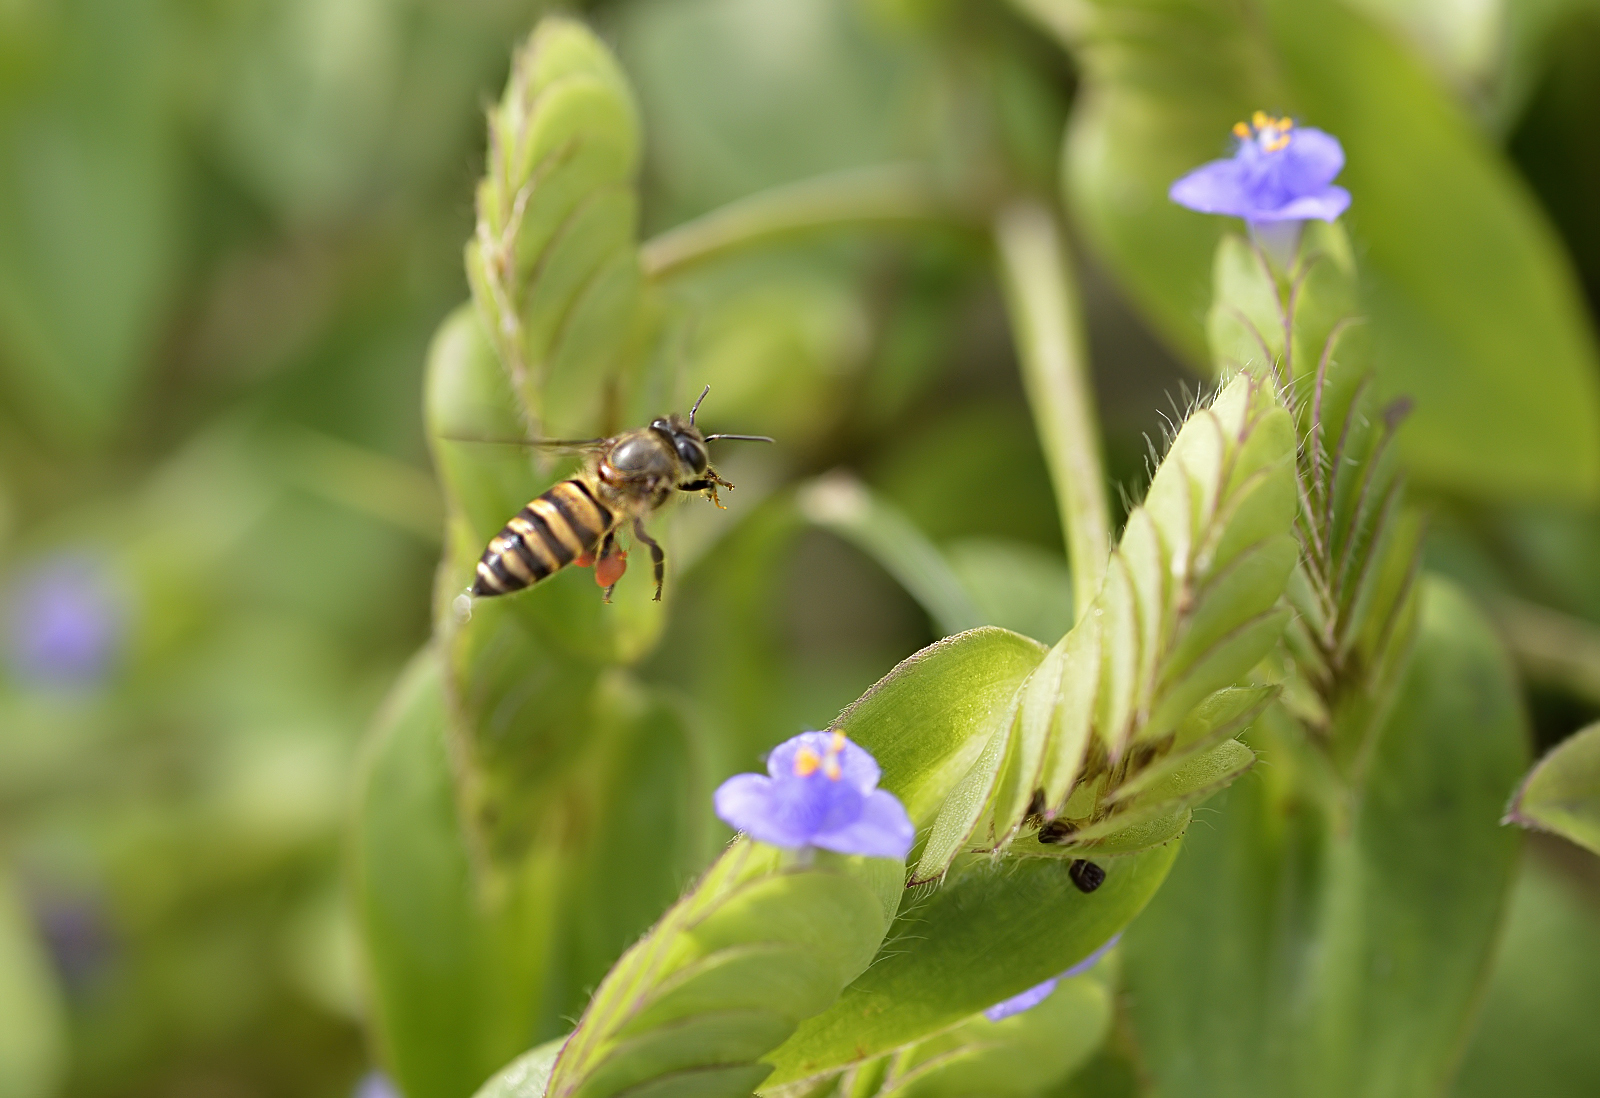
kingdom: Animalia
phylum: Arthropoda
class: Insecta
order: Hymenoptera
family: Apidae
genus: Apis
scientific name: Apis cerana
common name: Honey bee
